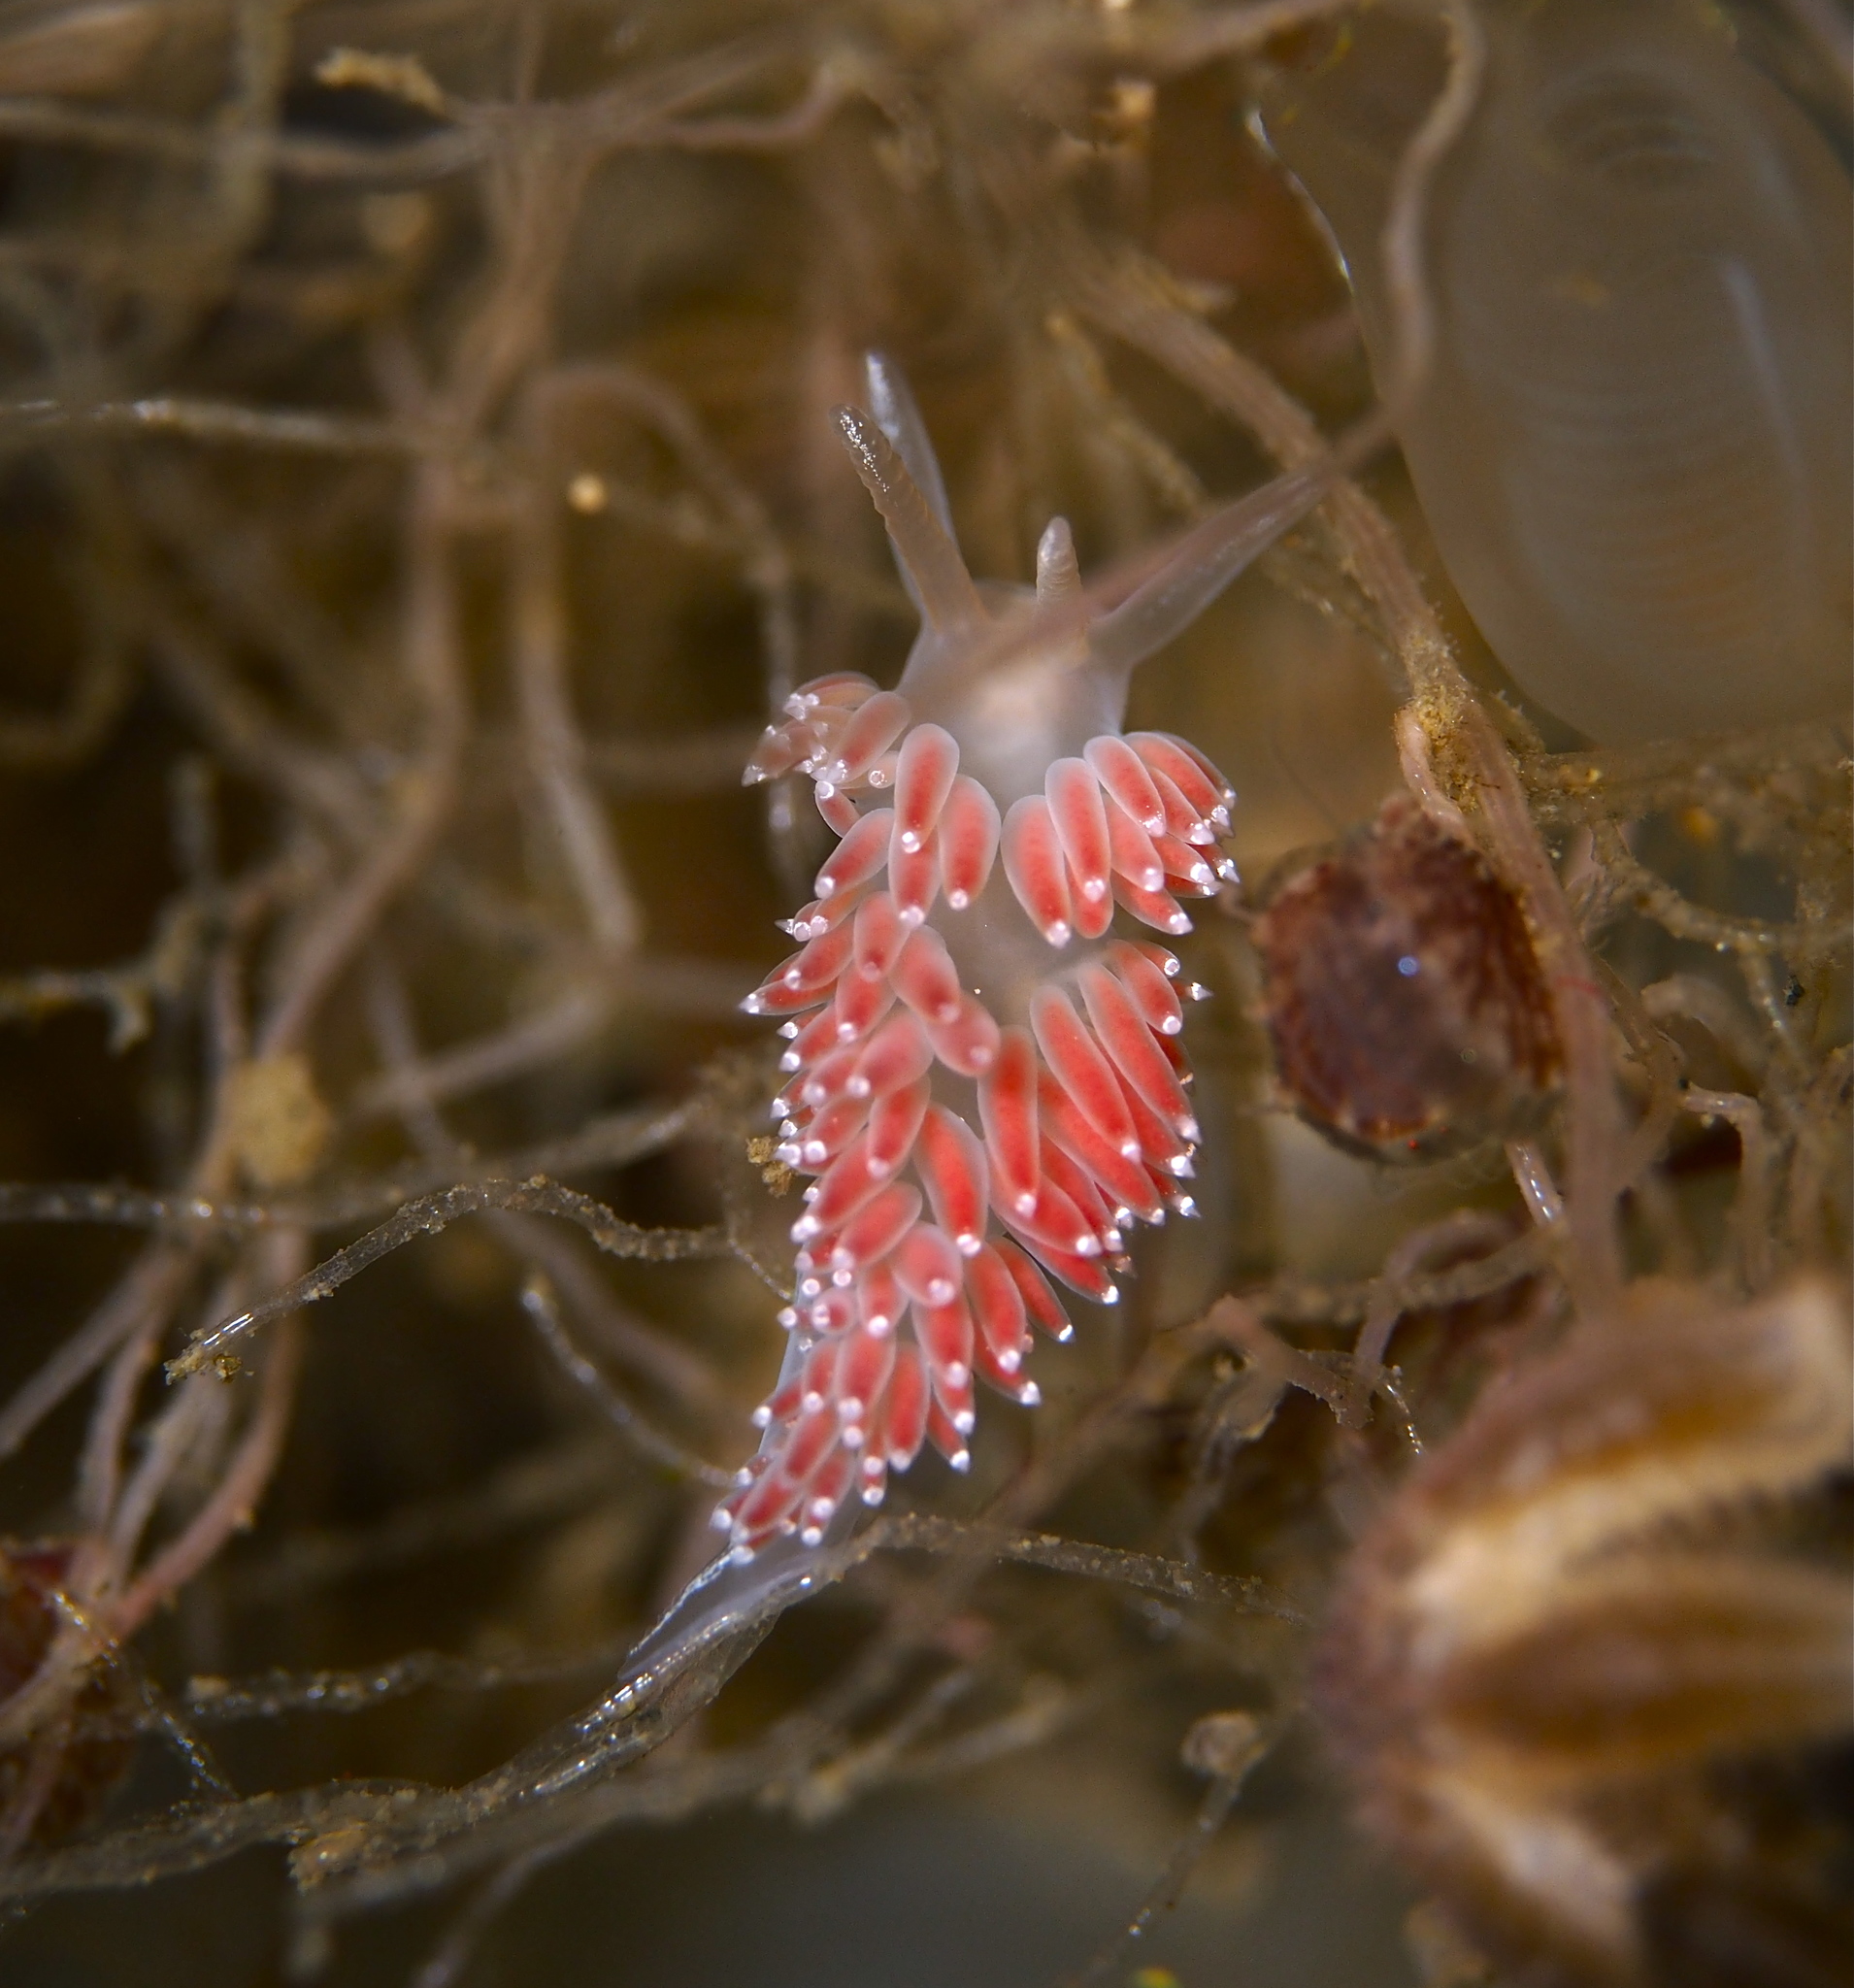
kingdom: Animalia
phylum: Mollusca
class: Gastropoda
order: Nudibranchia
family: Coryphellidae
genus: Coryphella
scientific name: Coryphella verrucosa
